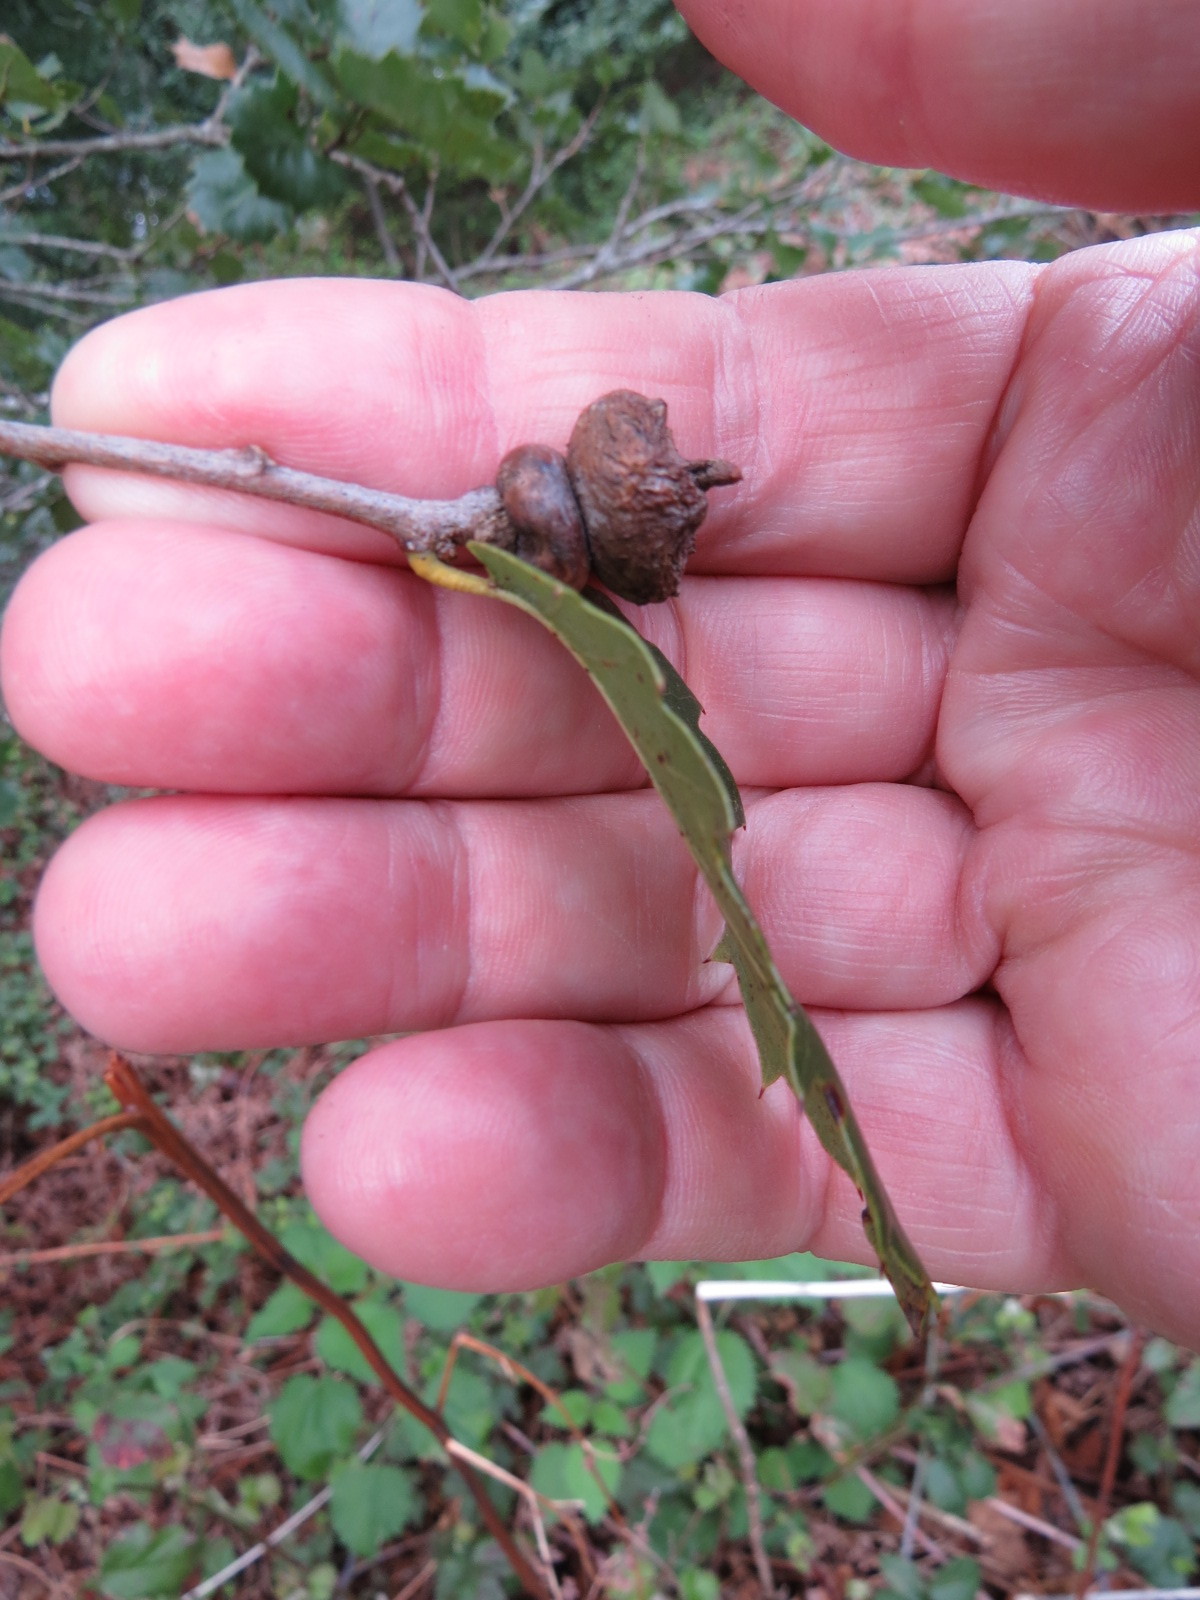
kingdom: Animalia
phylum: Arthropoda
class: Insecta
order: Hymenoptera
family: Cynipidae
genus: Heteroecus
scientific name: Heteroecus
